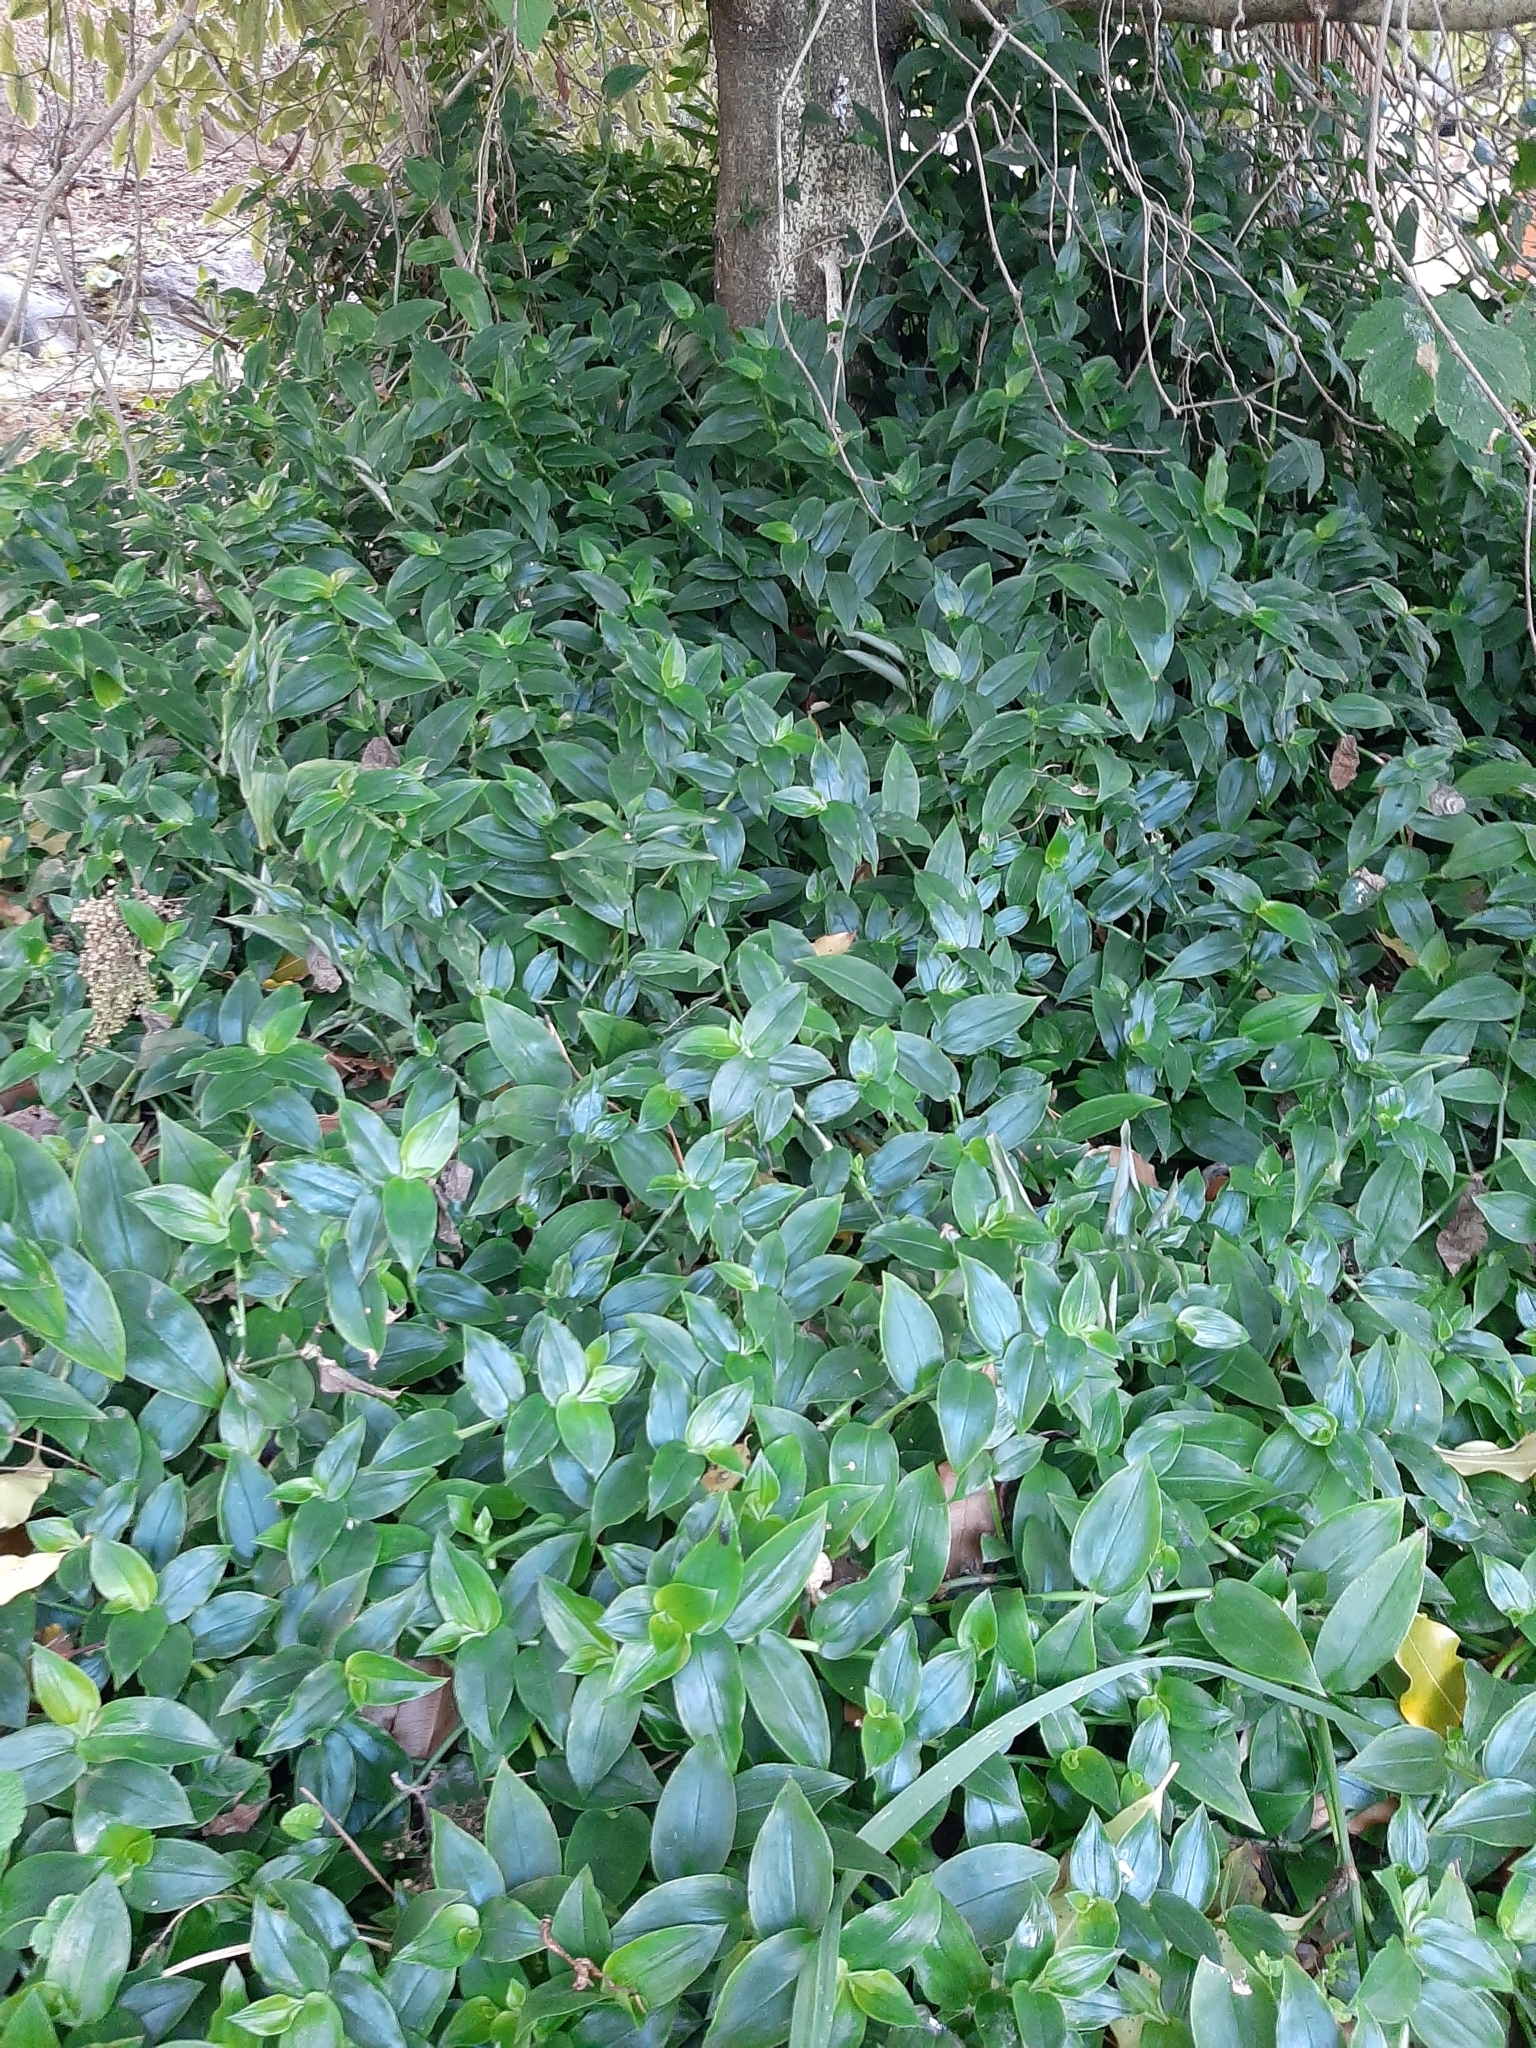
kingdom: Plantae
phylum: Tracheophyta
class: Liliopsida
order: Commelinales
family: Commelinaceae
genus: Tradescantia
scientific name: Tradescantia fluminensis
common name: Wandering-jew
